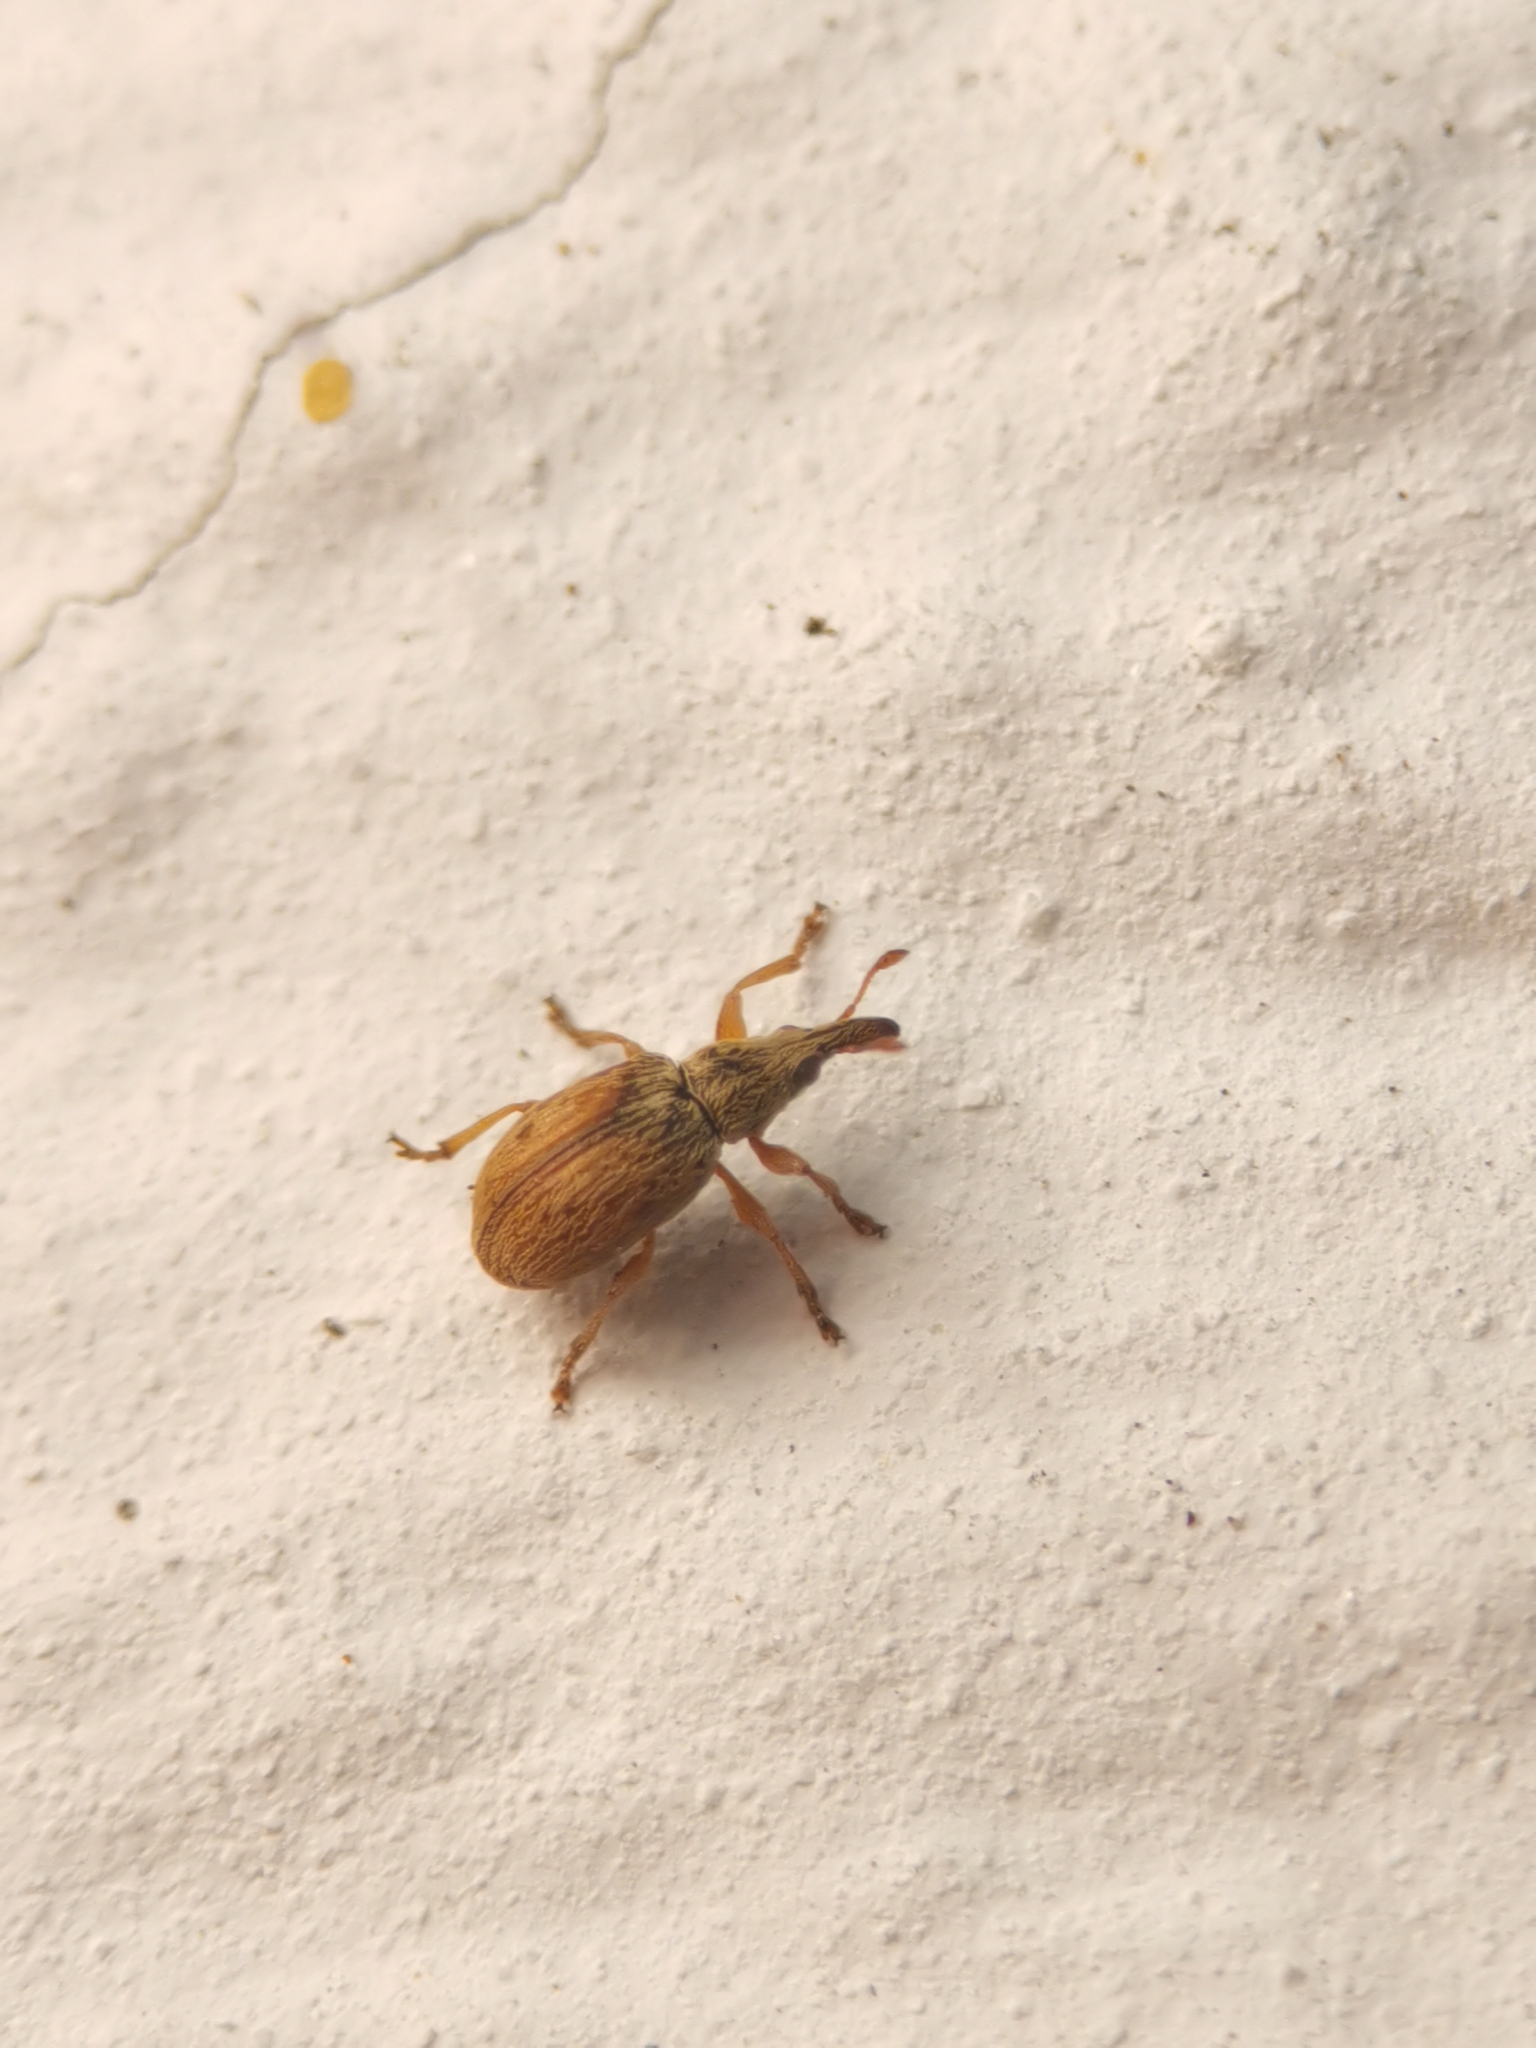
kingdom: Animalia
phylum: Arthropoda
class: Insecta
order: Coleoptera
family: Apionidae
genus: Malvapion
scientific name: Malvapion malvae
